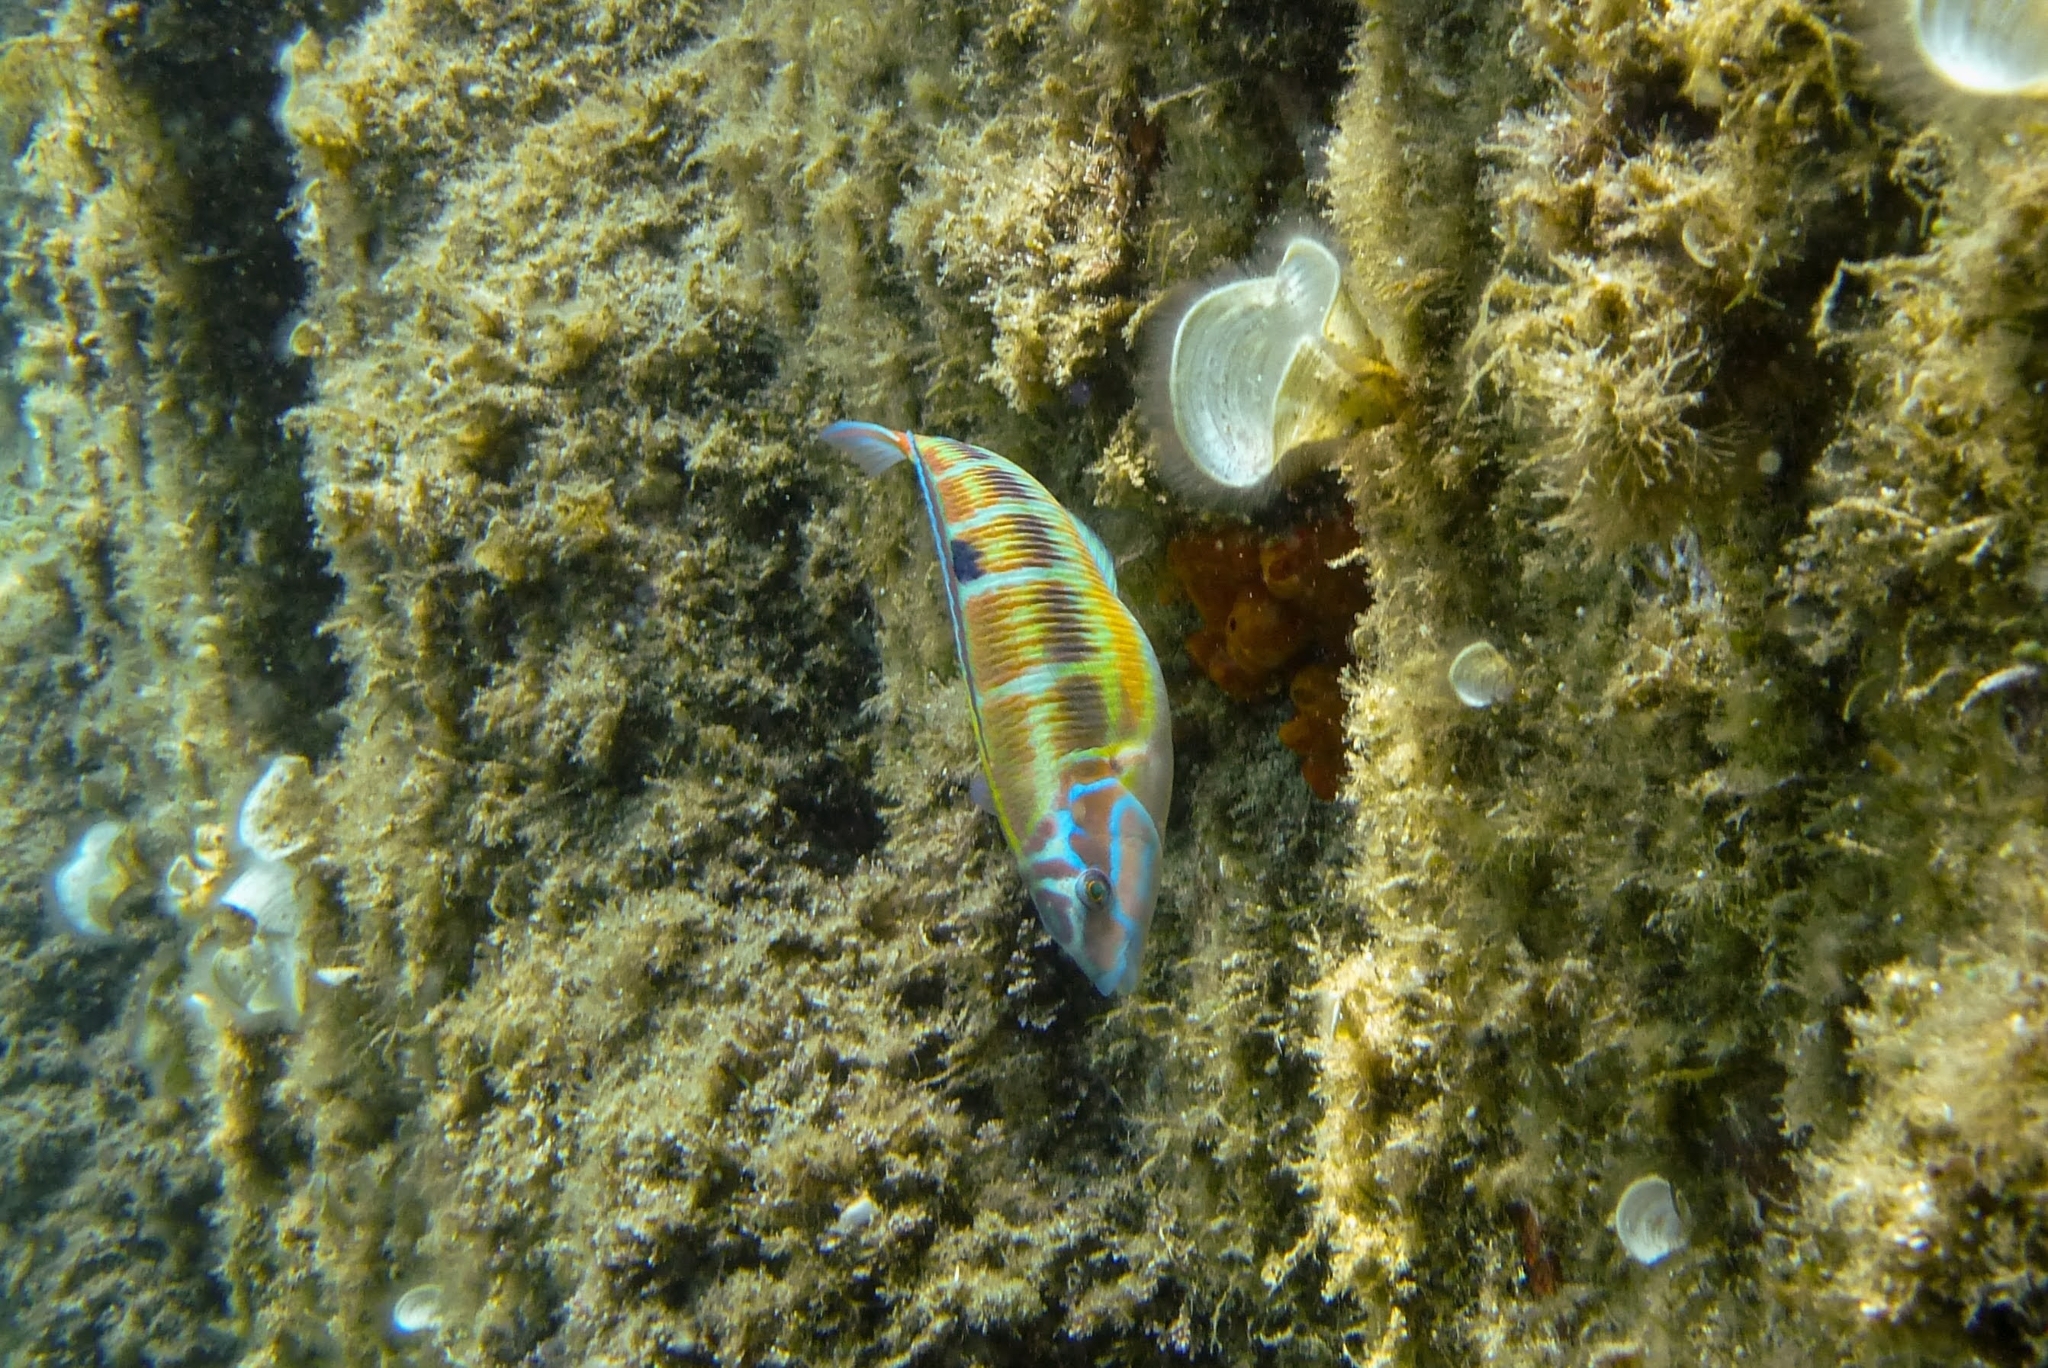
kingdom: Animalia
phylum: Chordata
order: Perciformes
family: Labridae
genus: Thalassoma
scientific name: Thalassoma pavo
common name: Ornate wrasse
